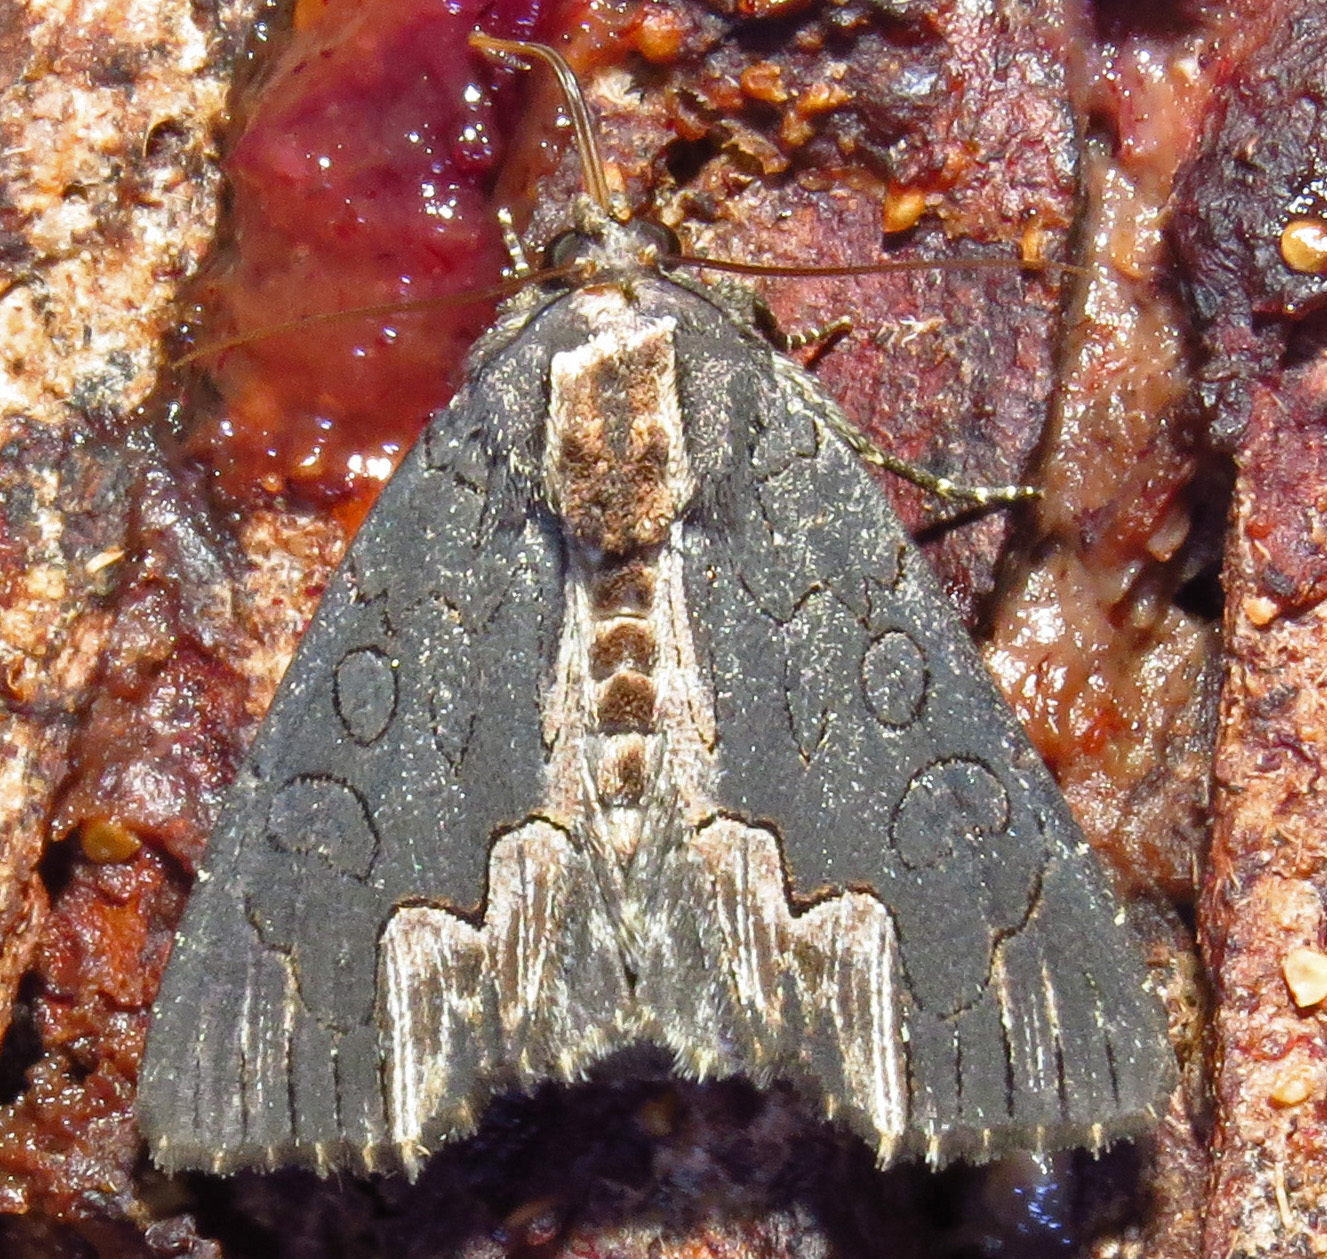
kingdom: Animalia
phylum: Arthropoda
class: Insecta
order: Lepidoptera
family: Noctuidae
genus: Dypterygia
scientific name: Dypterygia rozmani
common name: American bird's-wing
